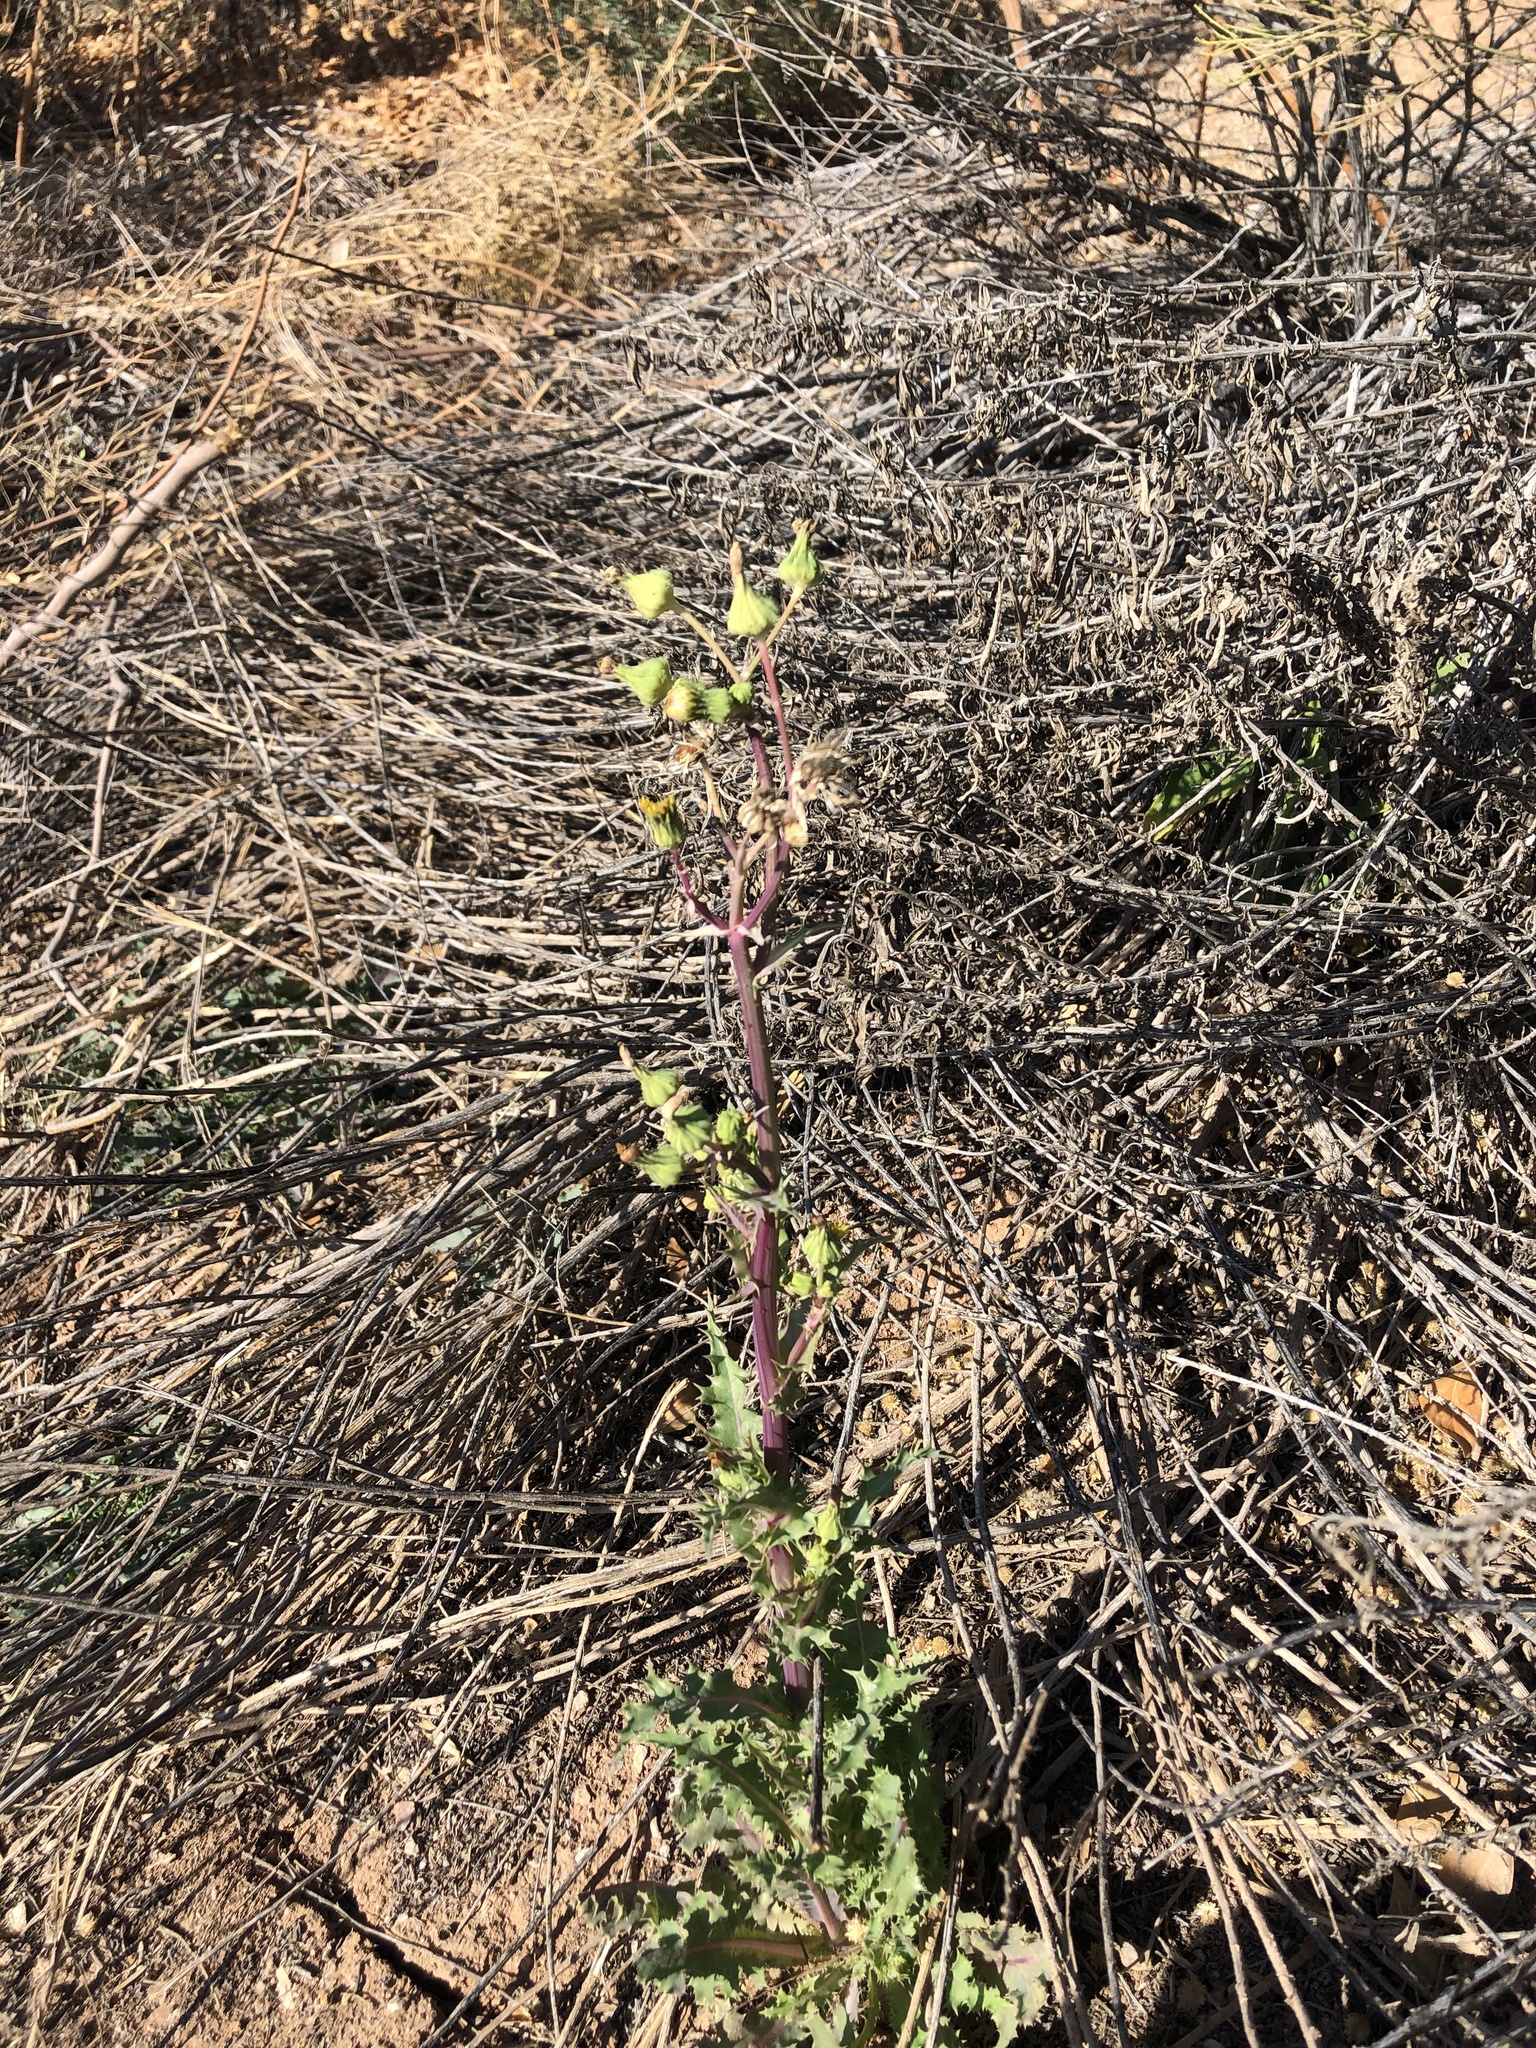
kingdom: Plantae
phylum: Tracheophyta
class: Magnoliopsida
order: Asterales
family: Asteraceae
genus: Sonchus
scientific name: Sonchus asper
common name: Prickly sow-thistle
